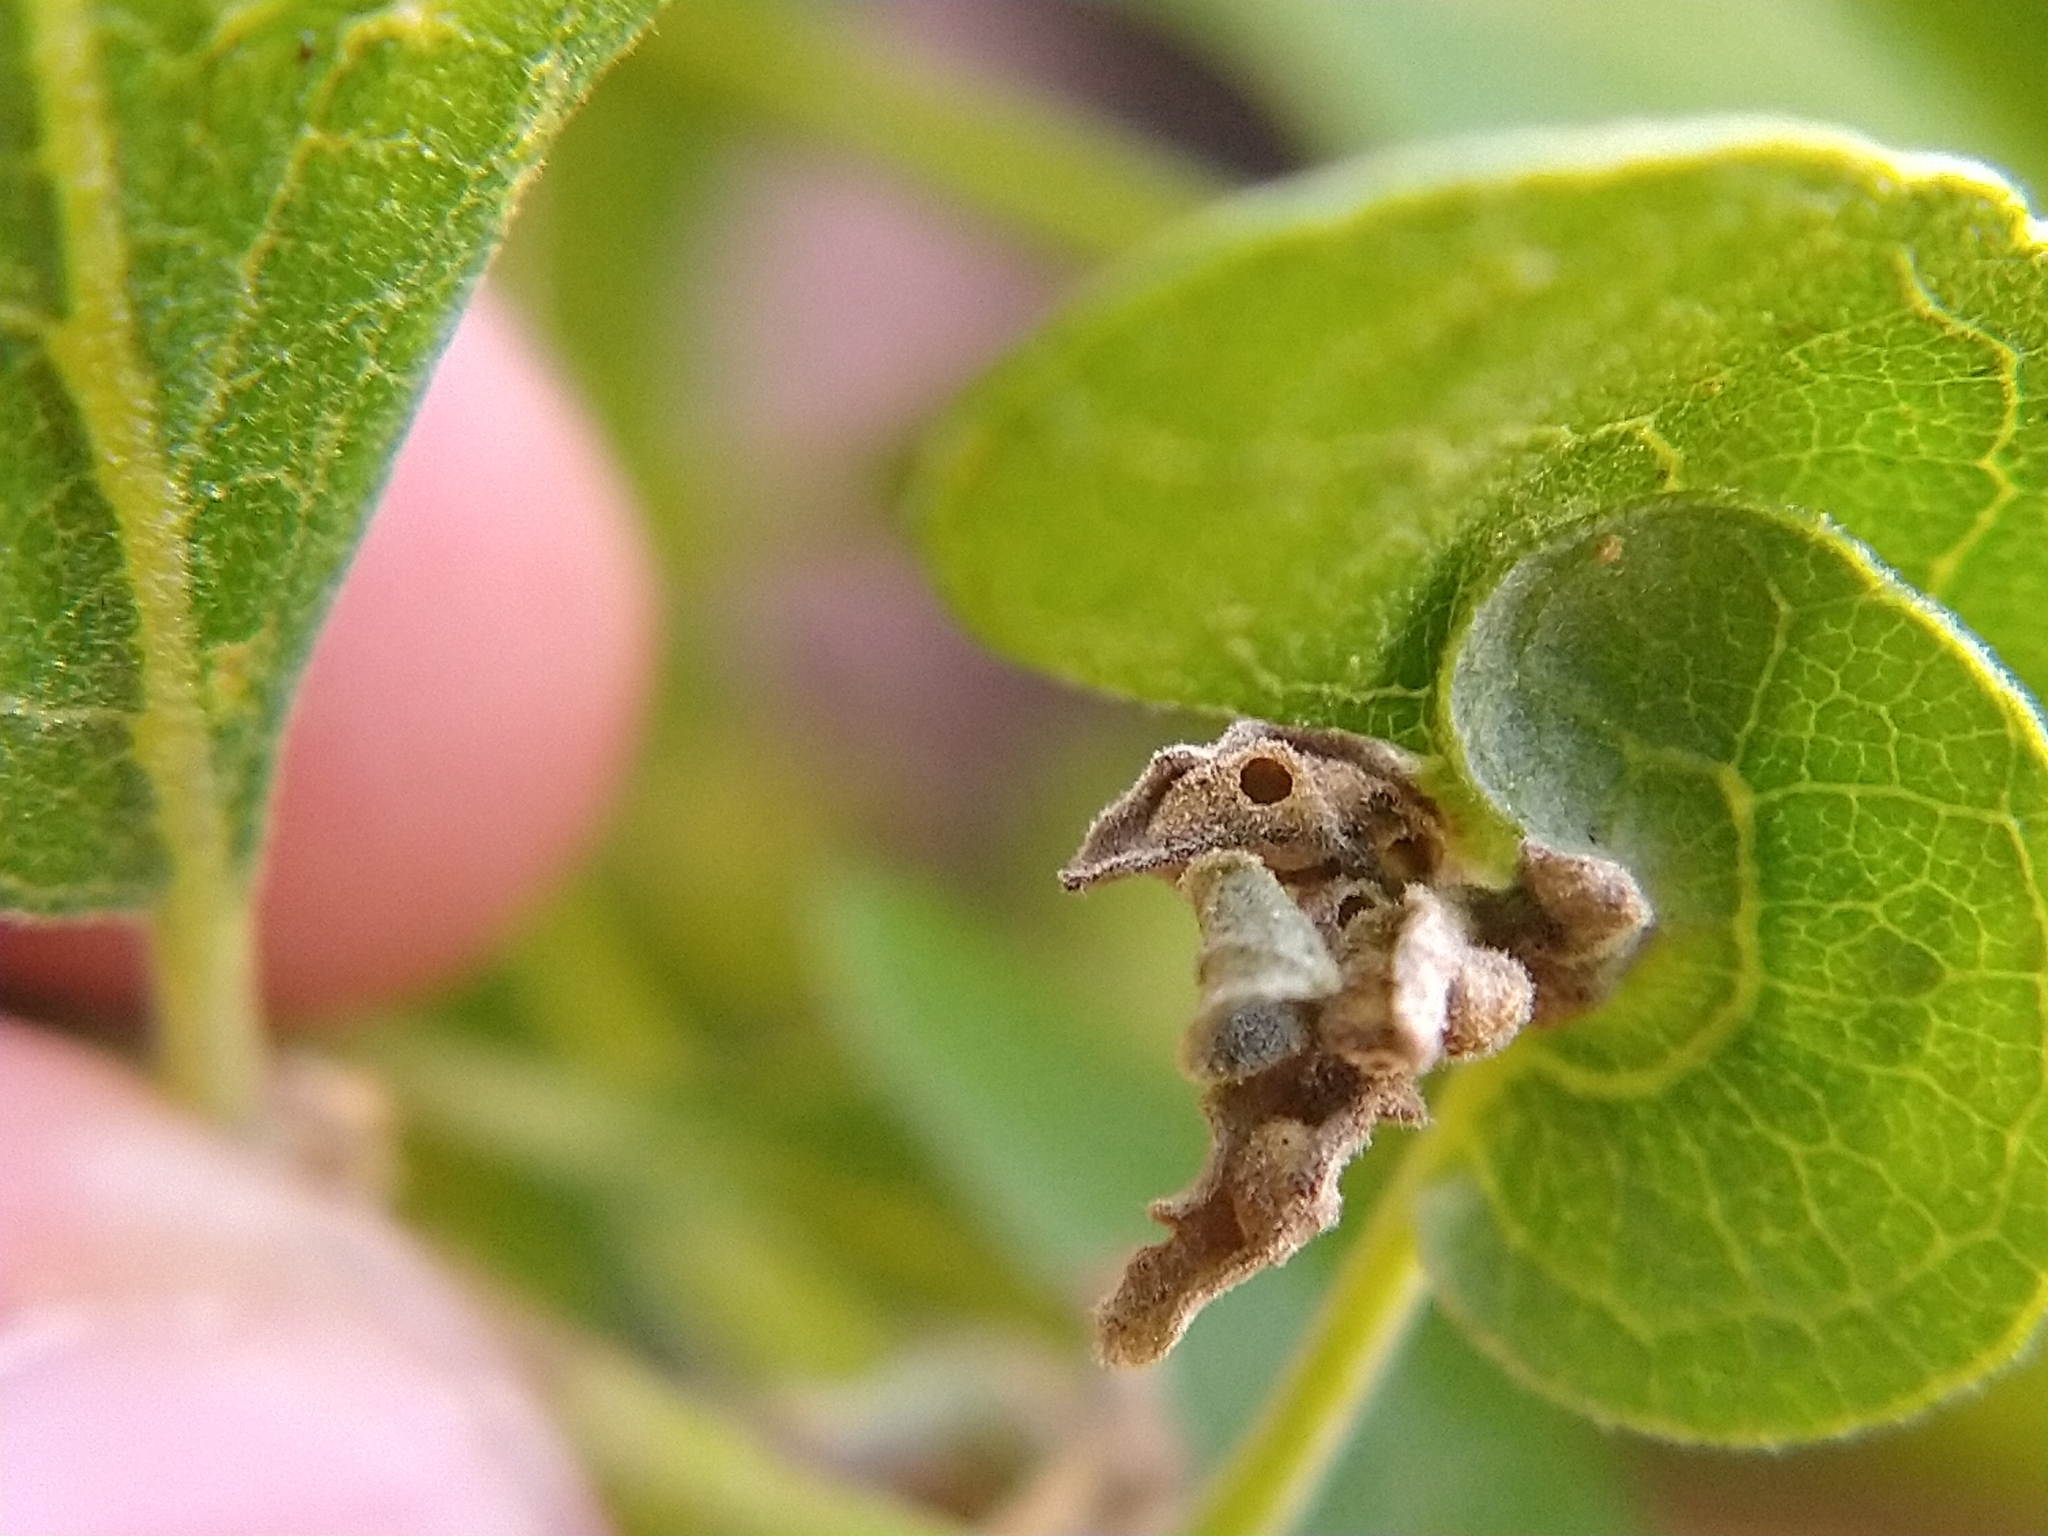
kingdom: Animalia
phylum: Arthropoda
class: Insecta
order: Hymenoptera
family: Cynipidae
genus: Neuroterus
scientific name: Neuroterus saltarius
